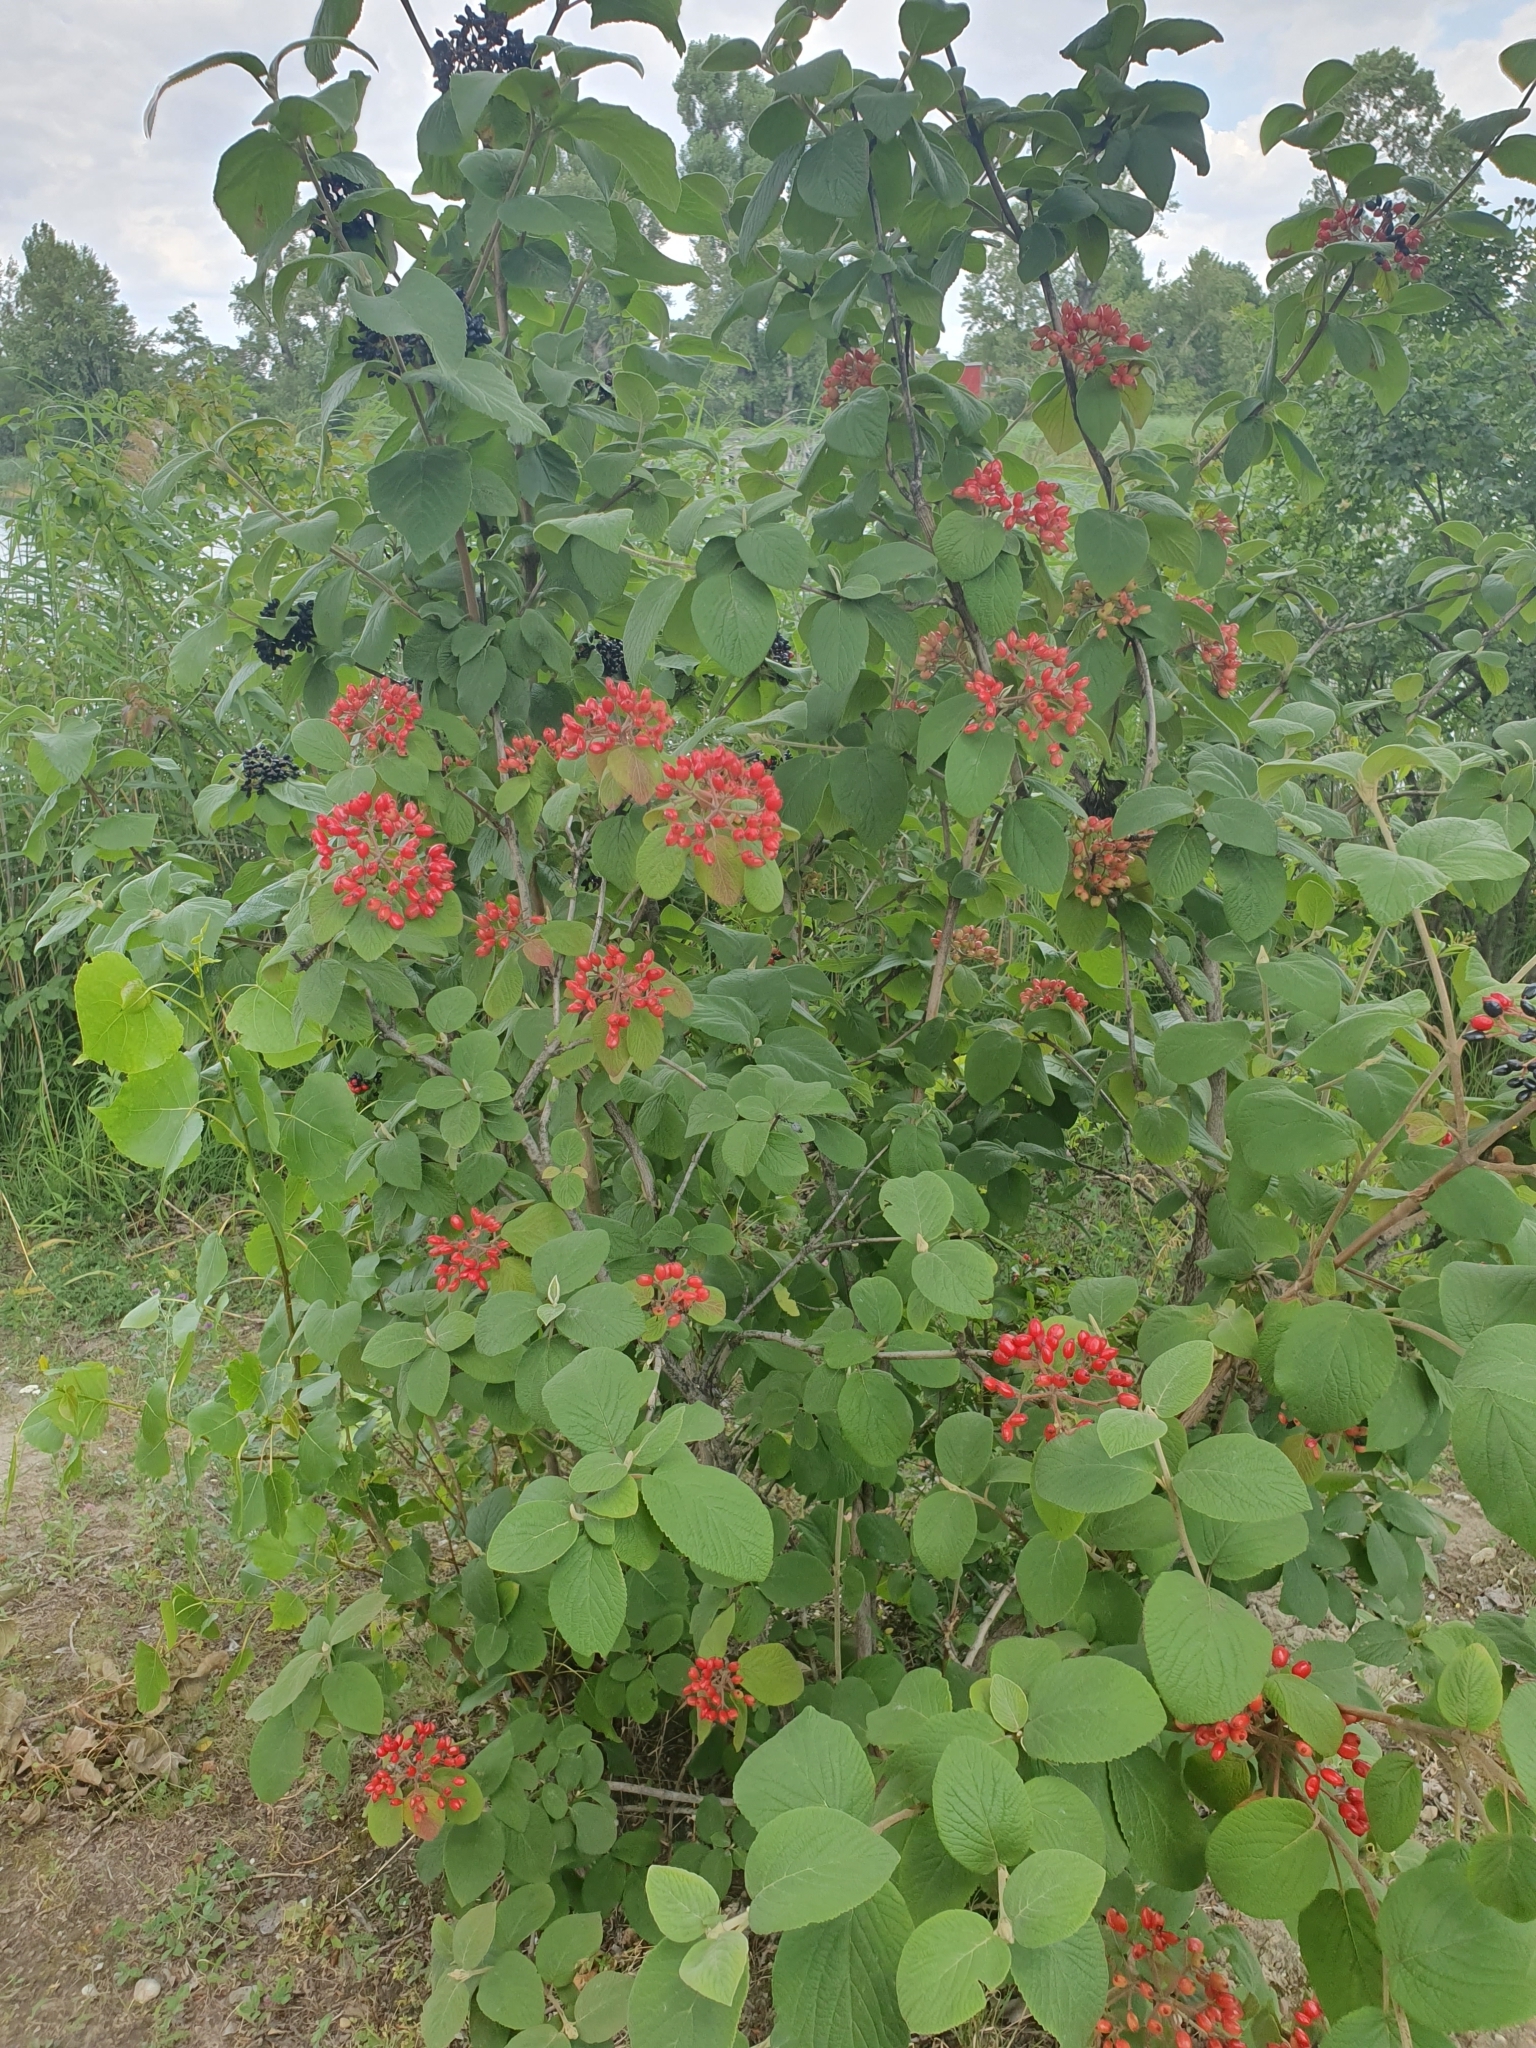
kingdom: Plantae
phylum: Tracheophyta
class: Magnoliopsida
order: Dipsacales
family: Viburnaceae
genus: Viburnum
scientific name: Viburnum lantana
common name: Wayfaring tree
